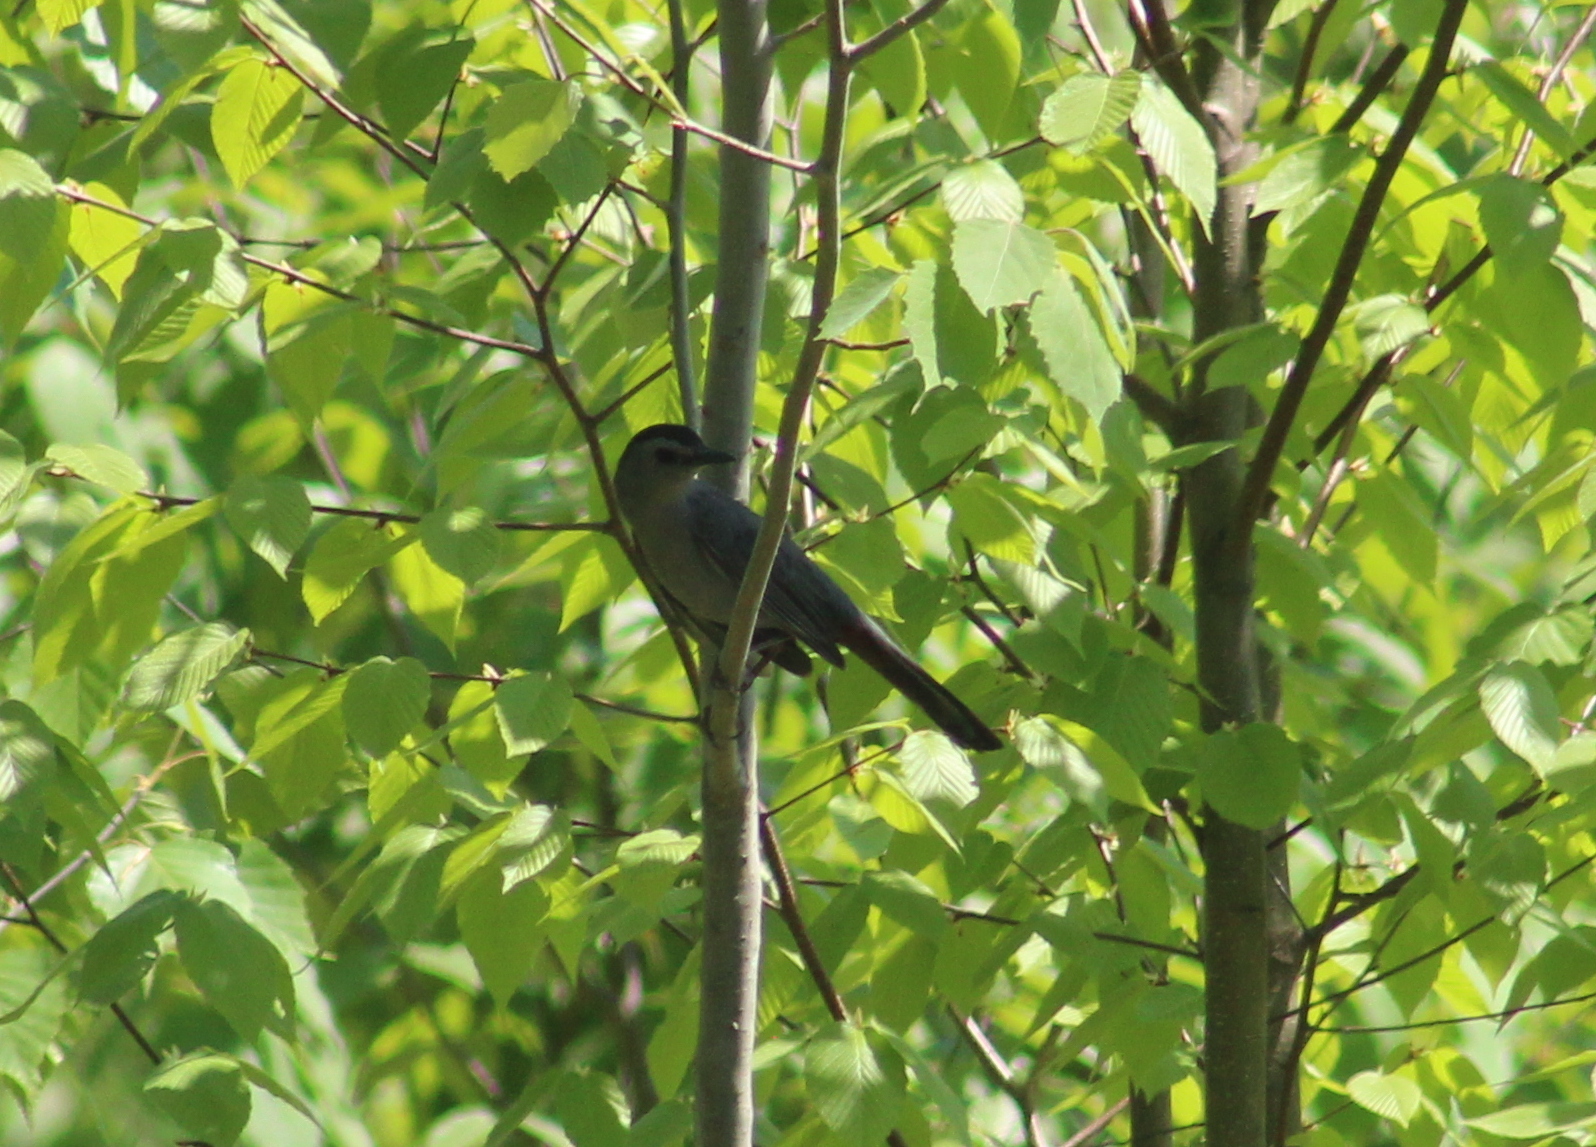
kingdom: Animalia
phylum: Chordata
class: Aves
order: Passeriformes
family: Mimidae
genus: Dumetella
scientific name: Dumetella carolinensis
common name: Gray catbird
